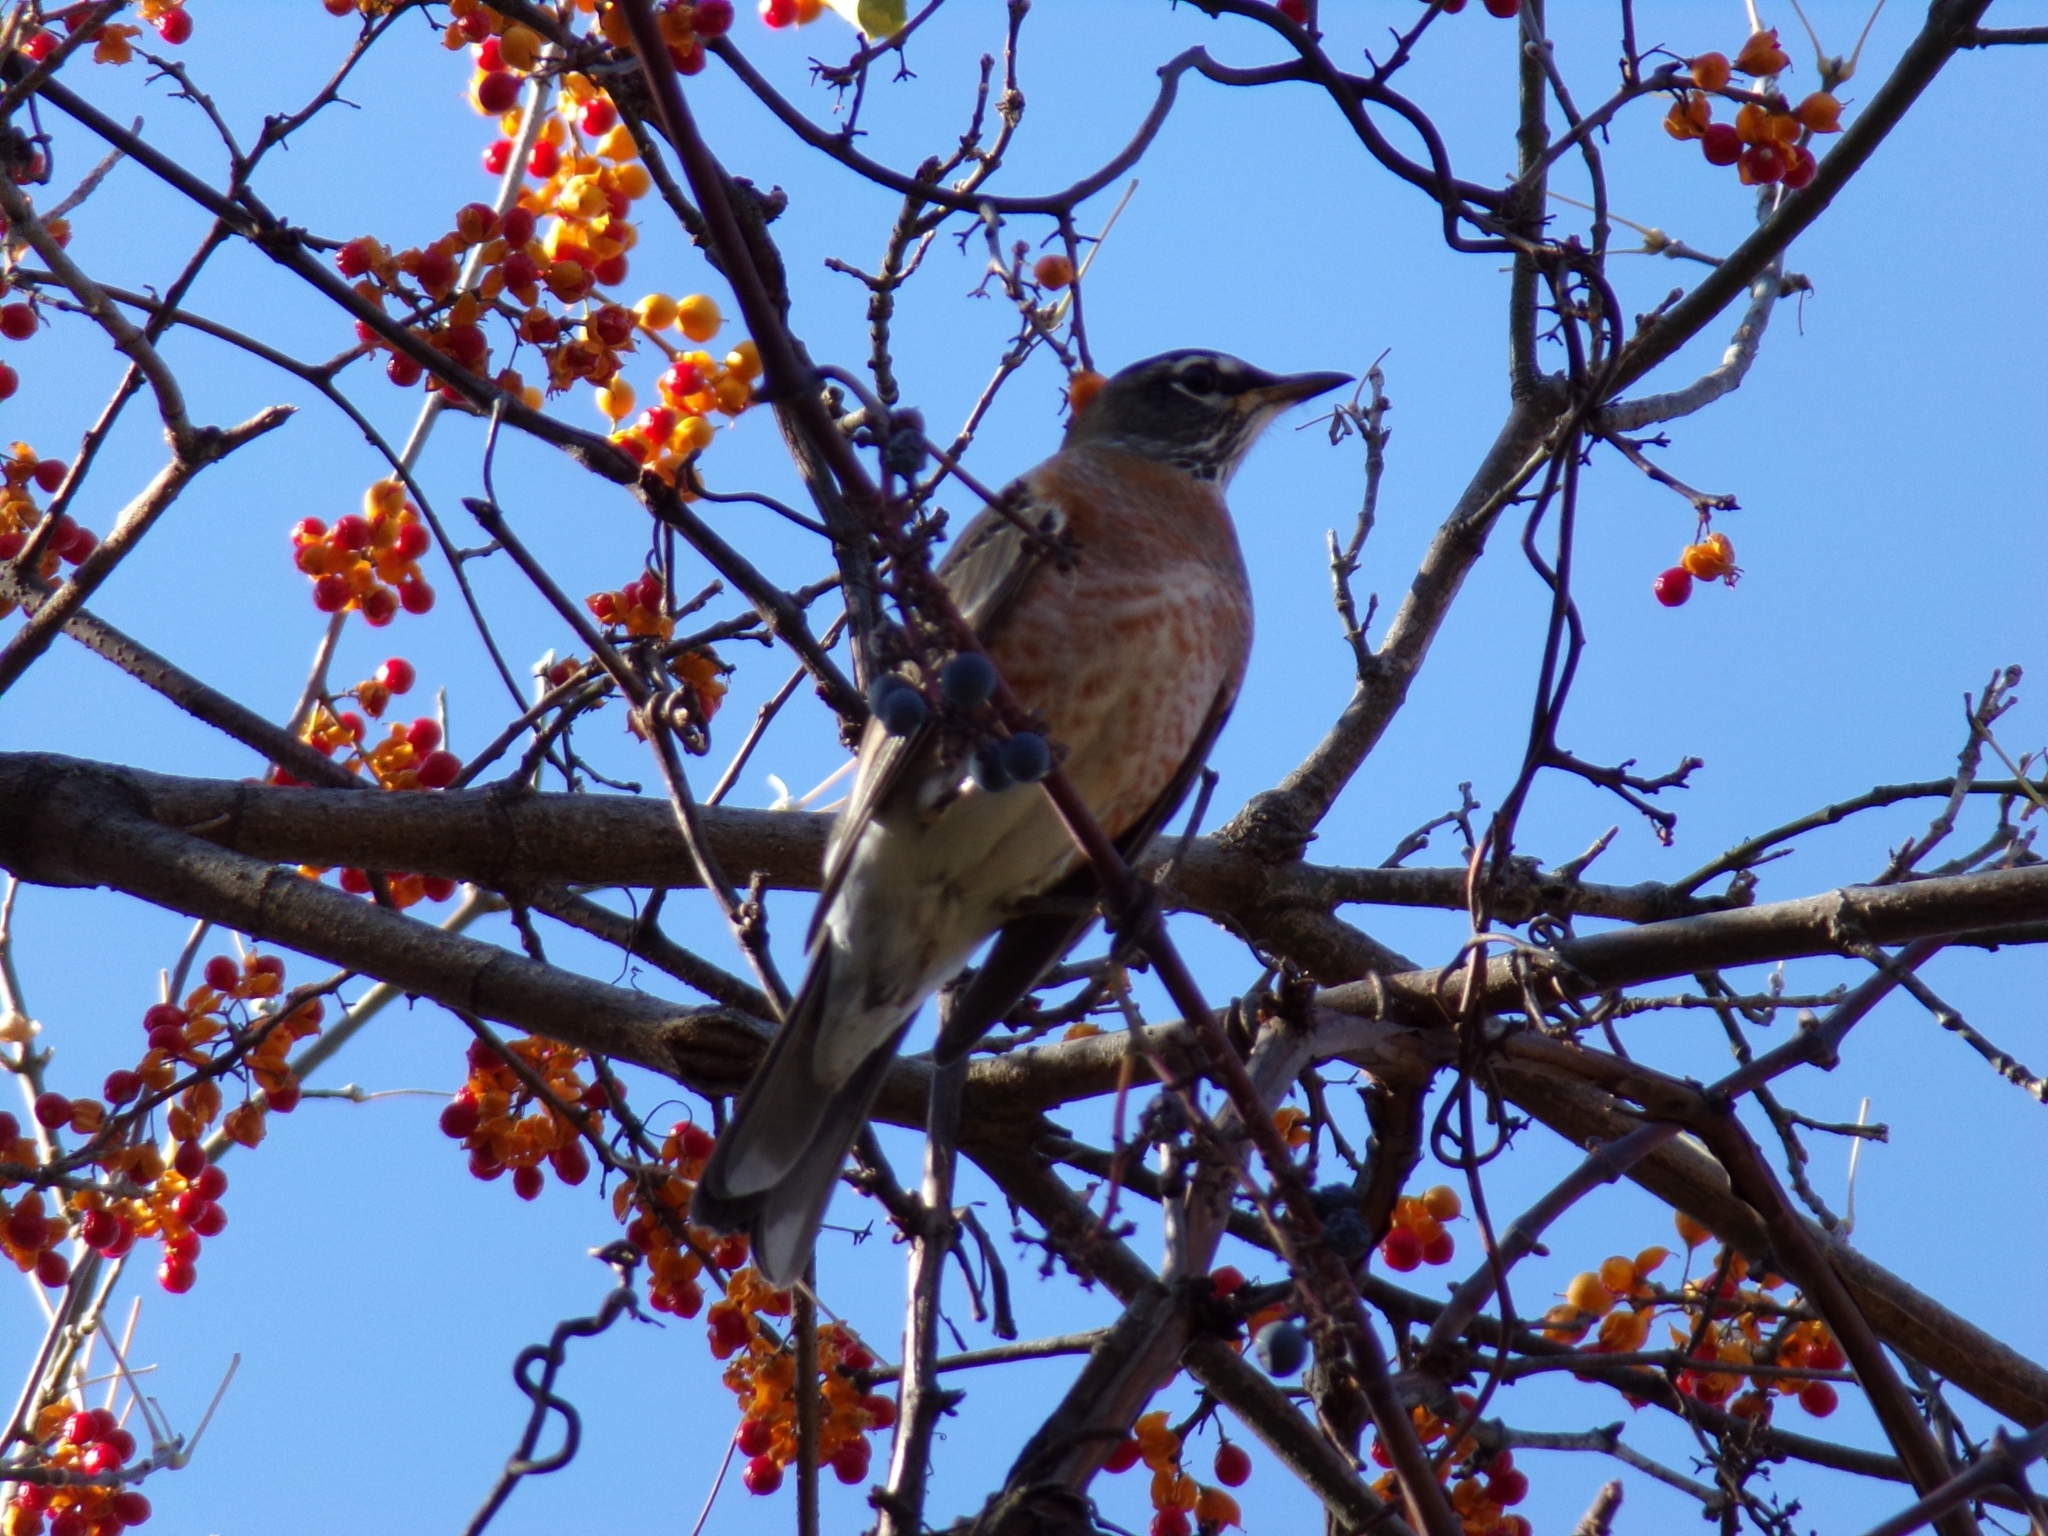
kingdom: Animalia
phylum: Chordata
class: Aves
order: Passeriformes
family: Turdidae
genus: Turdus
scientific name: Turdus migratorius
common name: American robin
